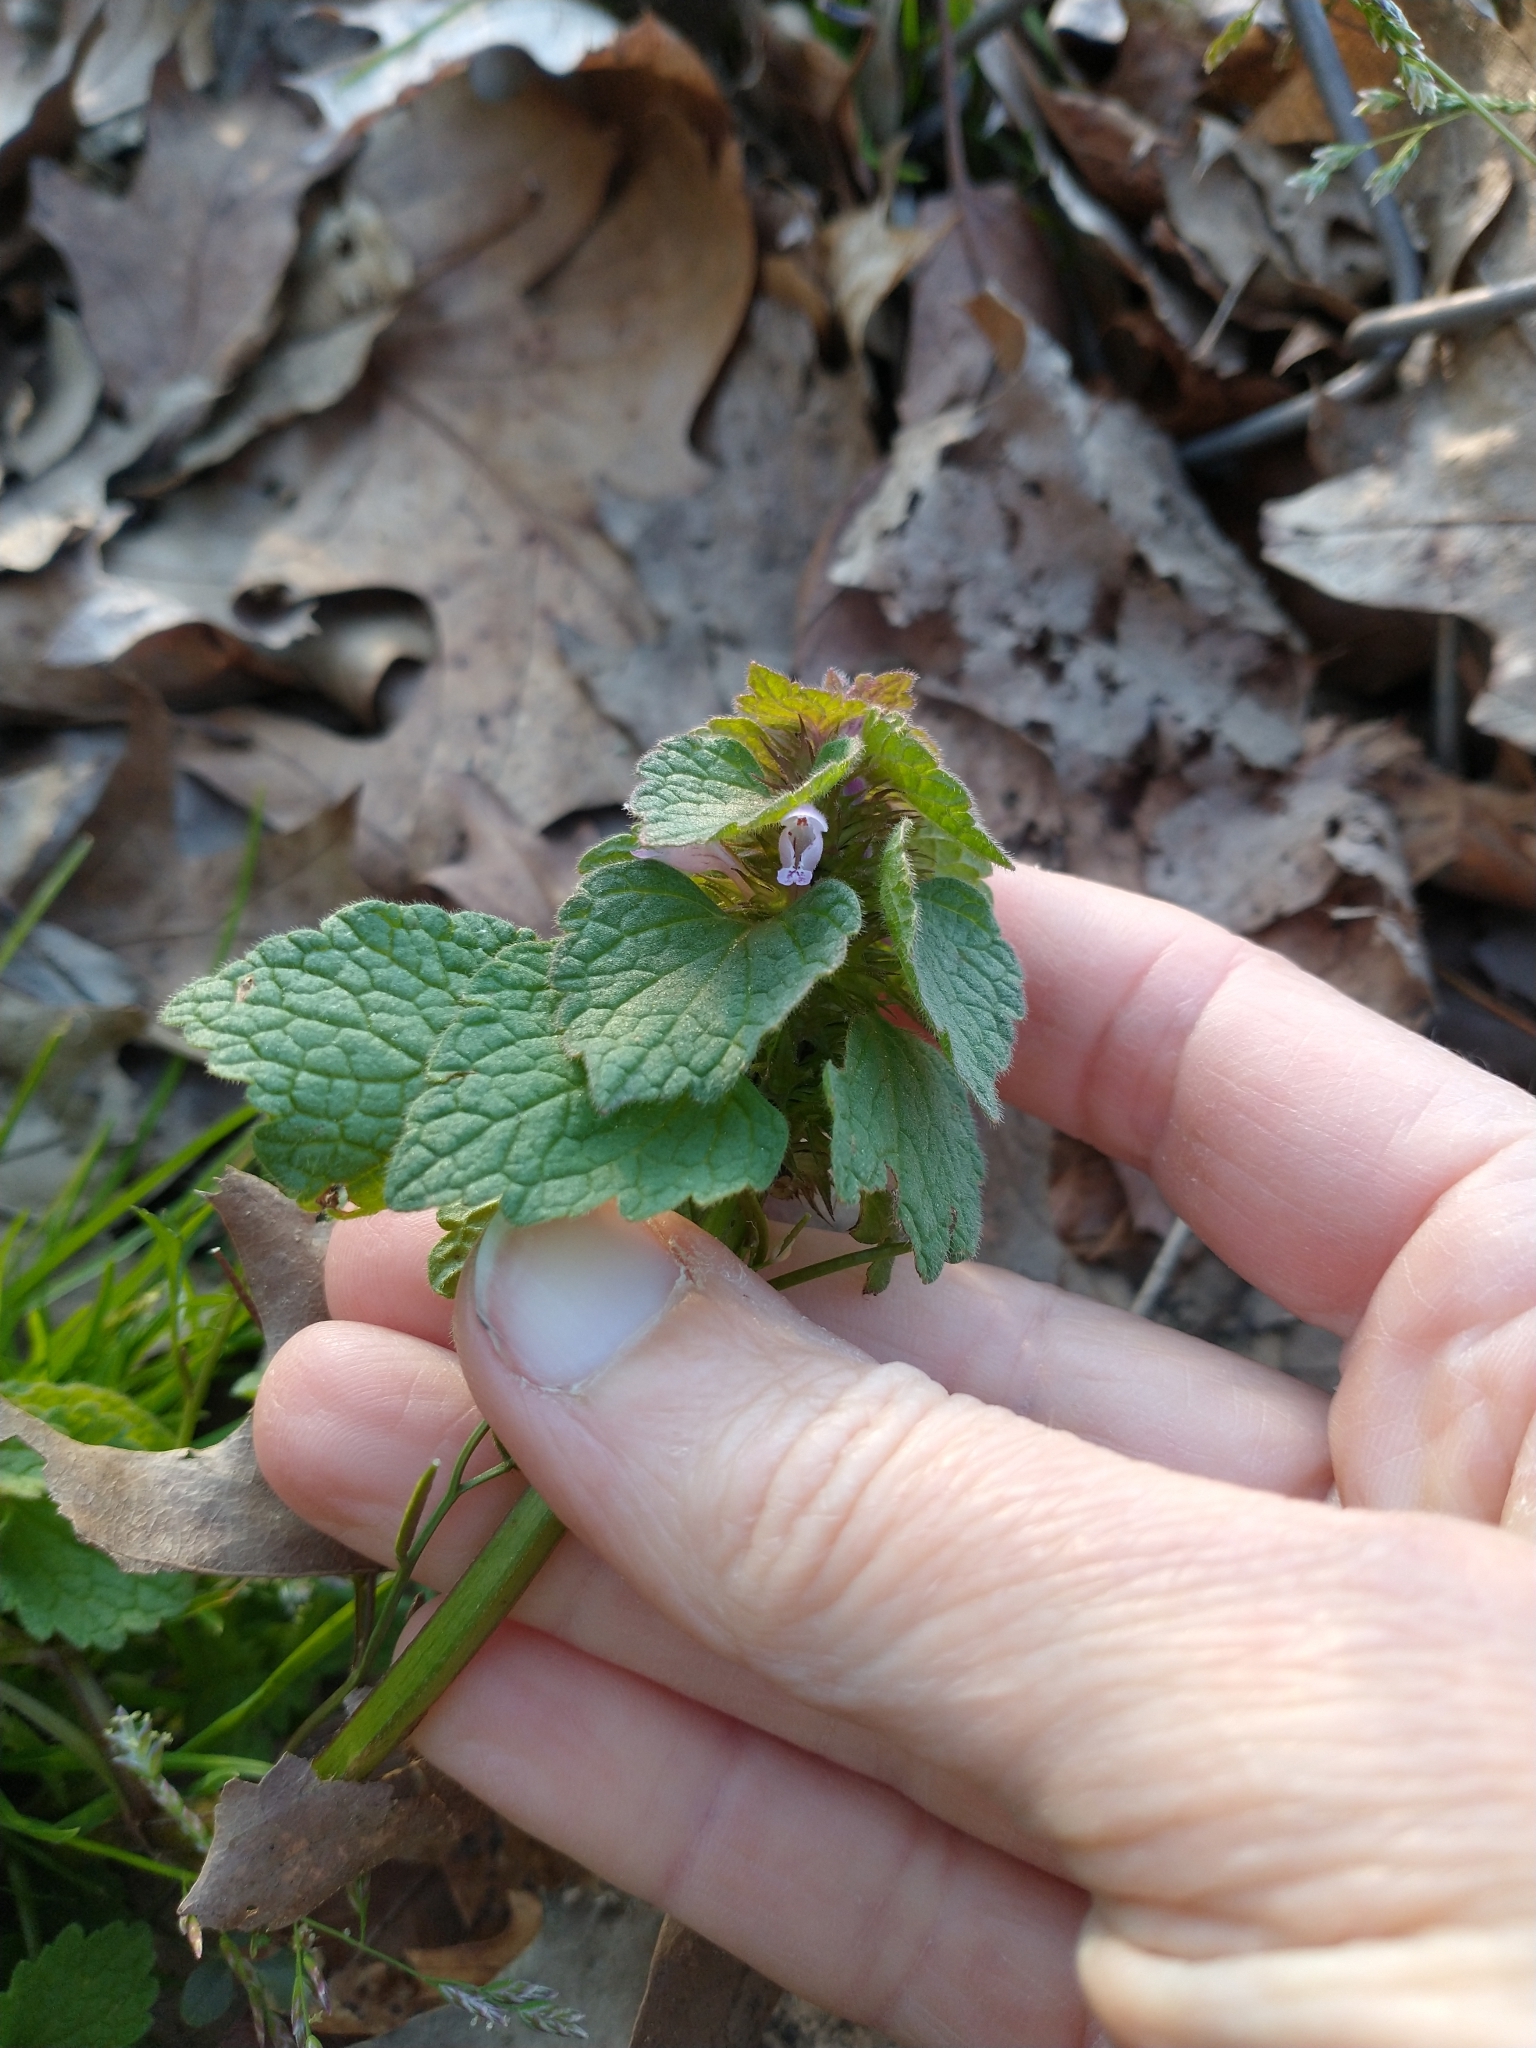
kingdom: Plantae
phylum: Tracheophyta
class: Magnoliopsida
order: Lamiales
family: Lamiaceae
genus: Lamium
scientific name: Lamium purpureum
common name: Red dead-nettle
